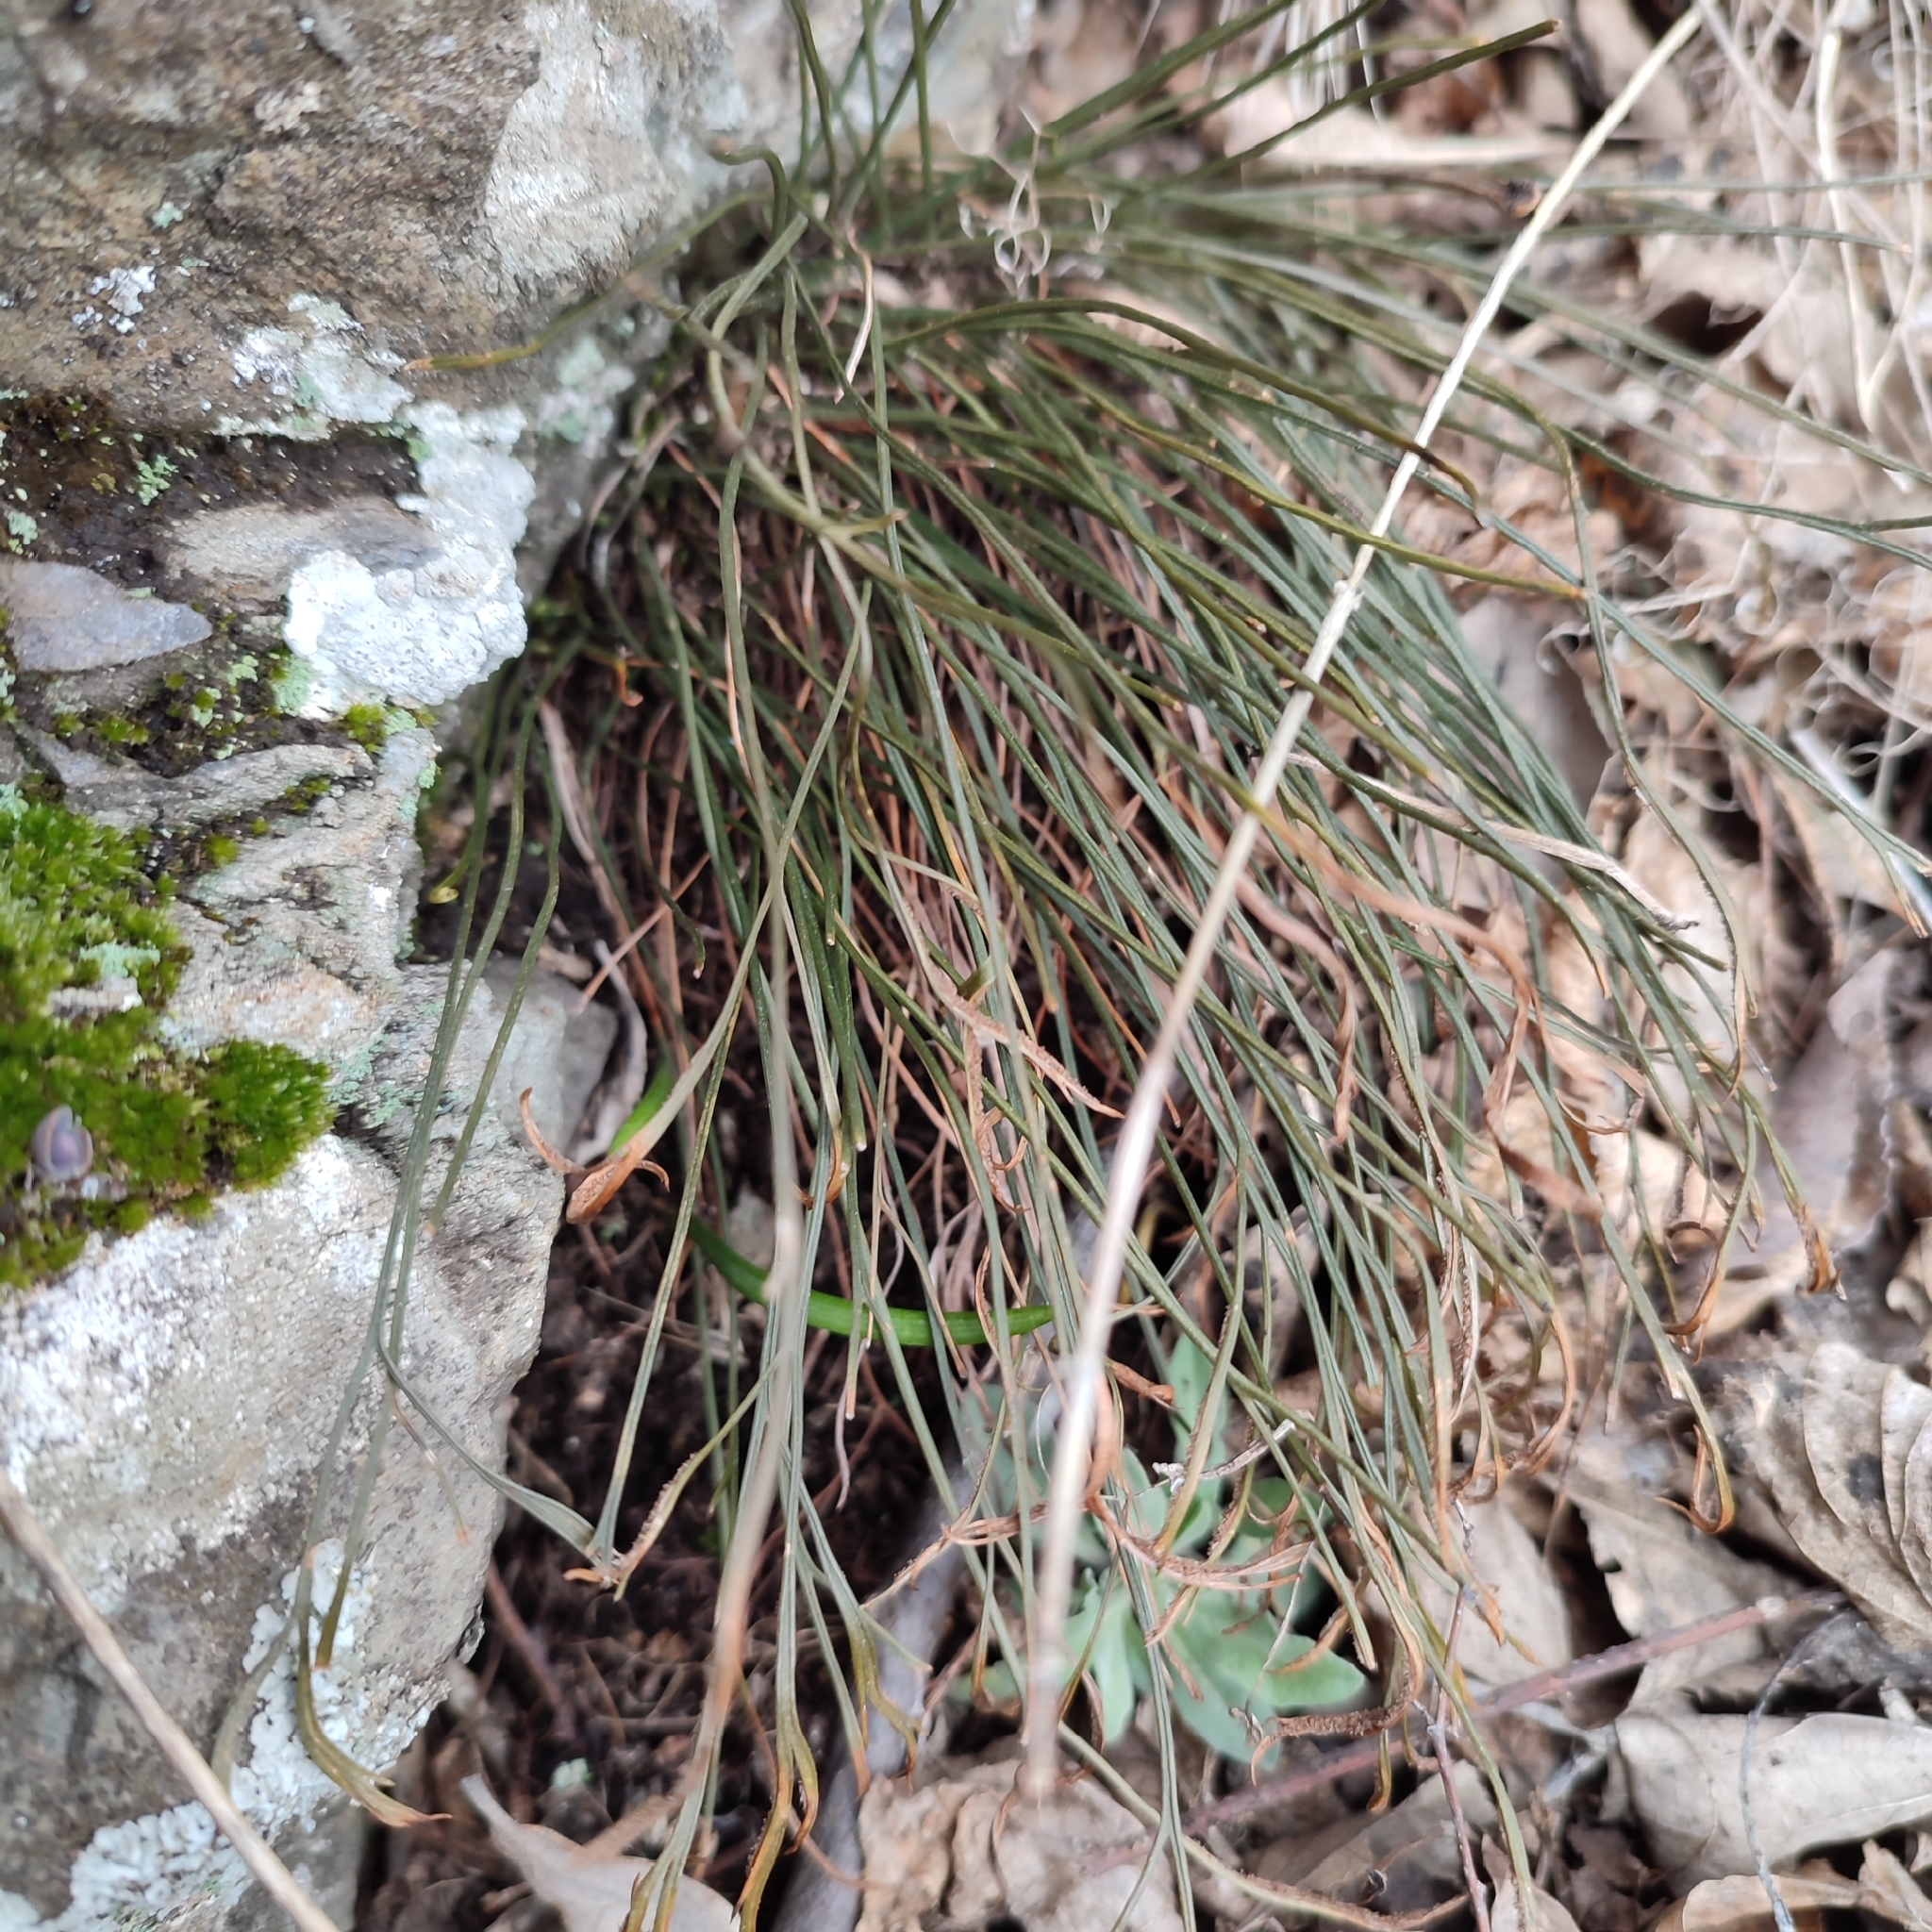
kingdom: Plantae
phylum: Tracheophyta
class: Polypodiopsida
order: Polypodiales
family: Aspleniaceae
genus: Asplenium
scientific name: Asplenium septentrionale
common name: Forked spleenwort
